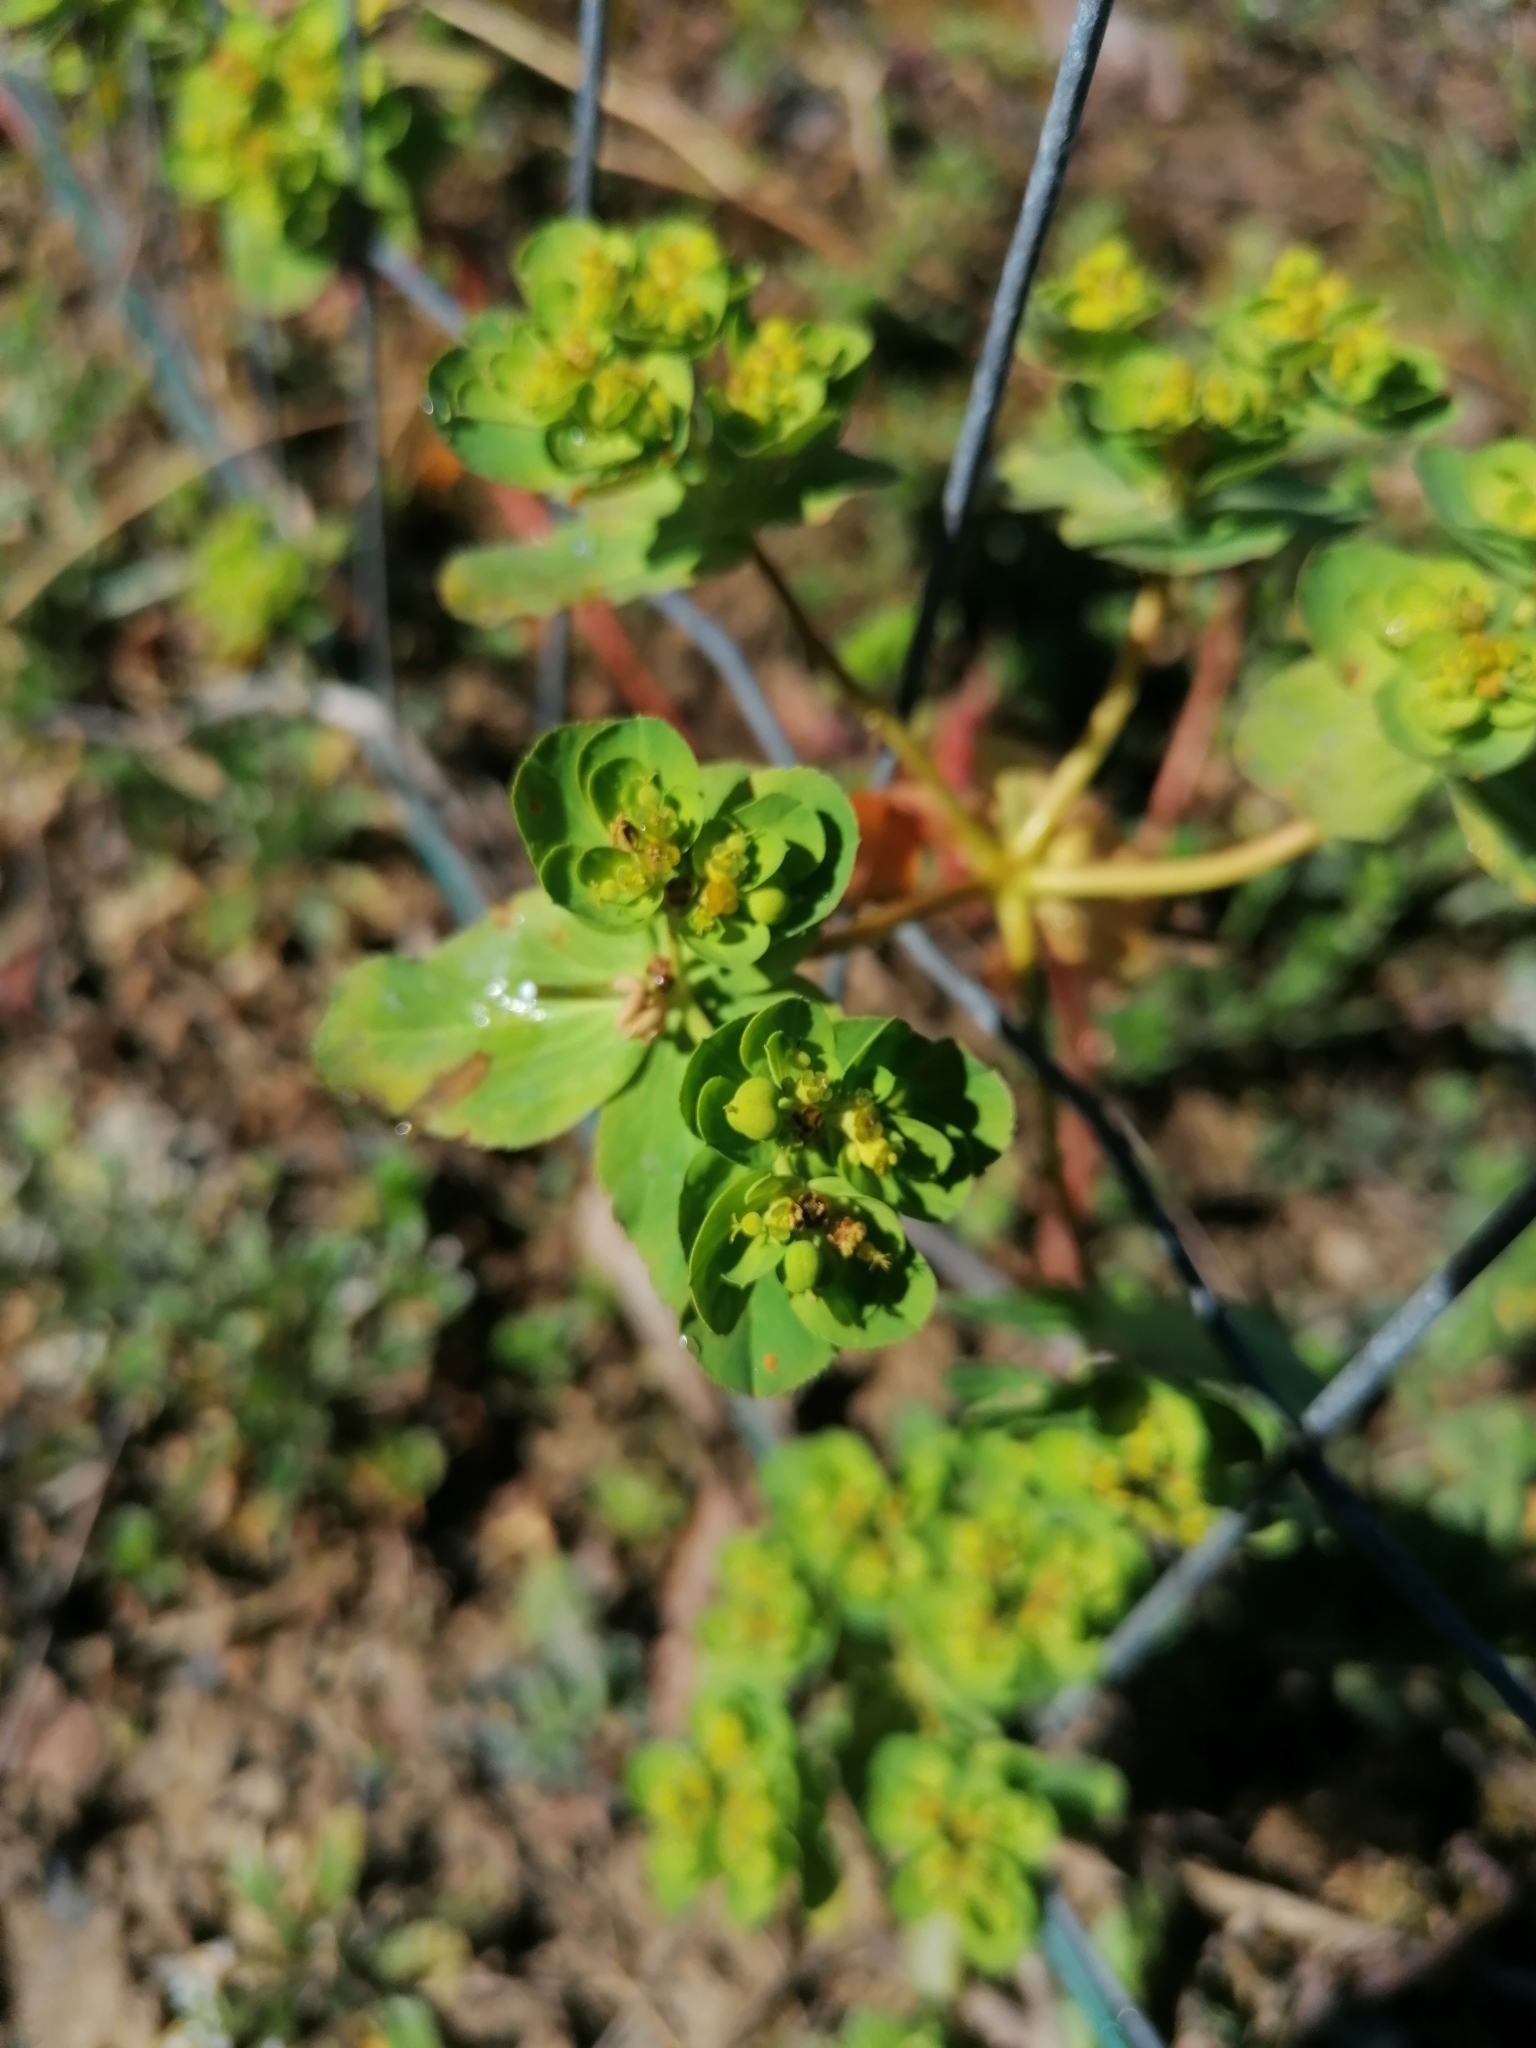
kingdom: Plantae
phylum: Tracheophyta
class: Magnoliopsida
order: Malpighiales
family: Euphorbiaceae
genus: Euphorbia
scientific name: Euphorbia helioscopia
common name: Sun spurge
